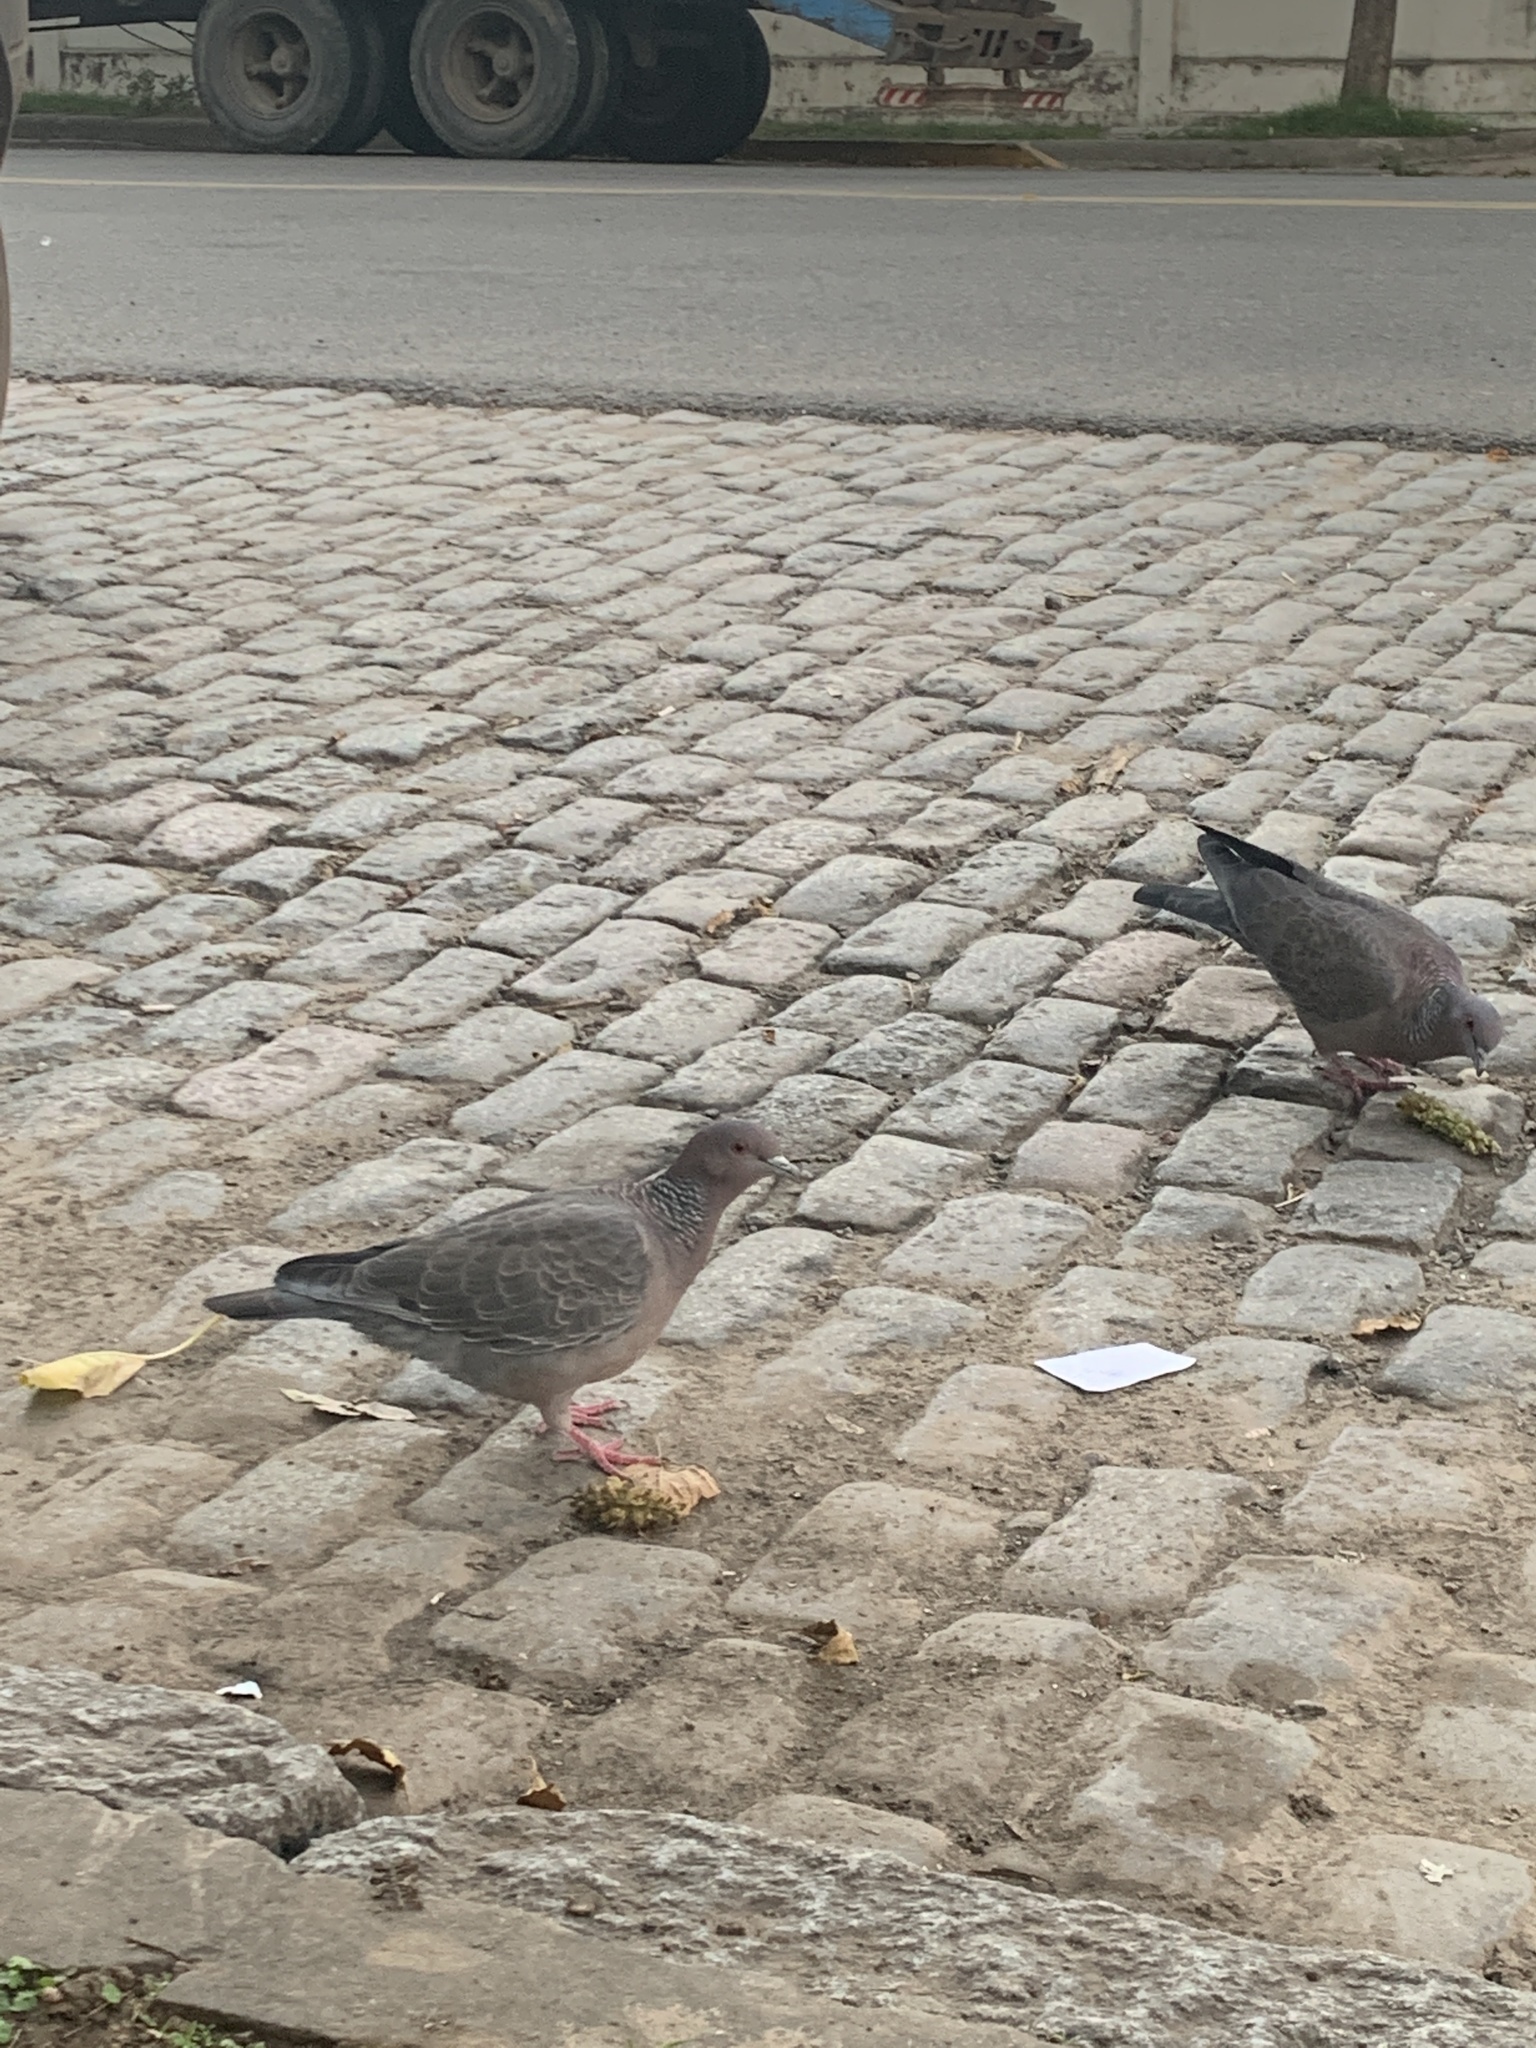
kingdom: Animalia
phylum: Chordata
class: Aves
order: Columbiformes
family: Columbidae
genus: Patagioenas
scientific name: Patagioenas picazuro
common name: Picazuro pigeon
